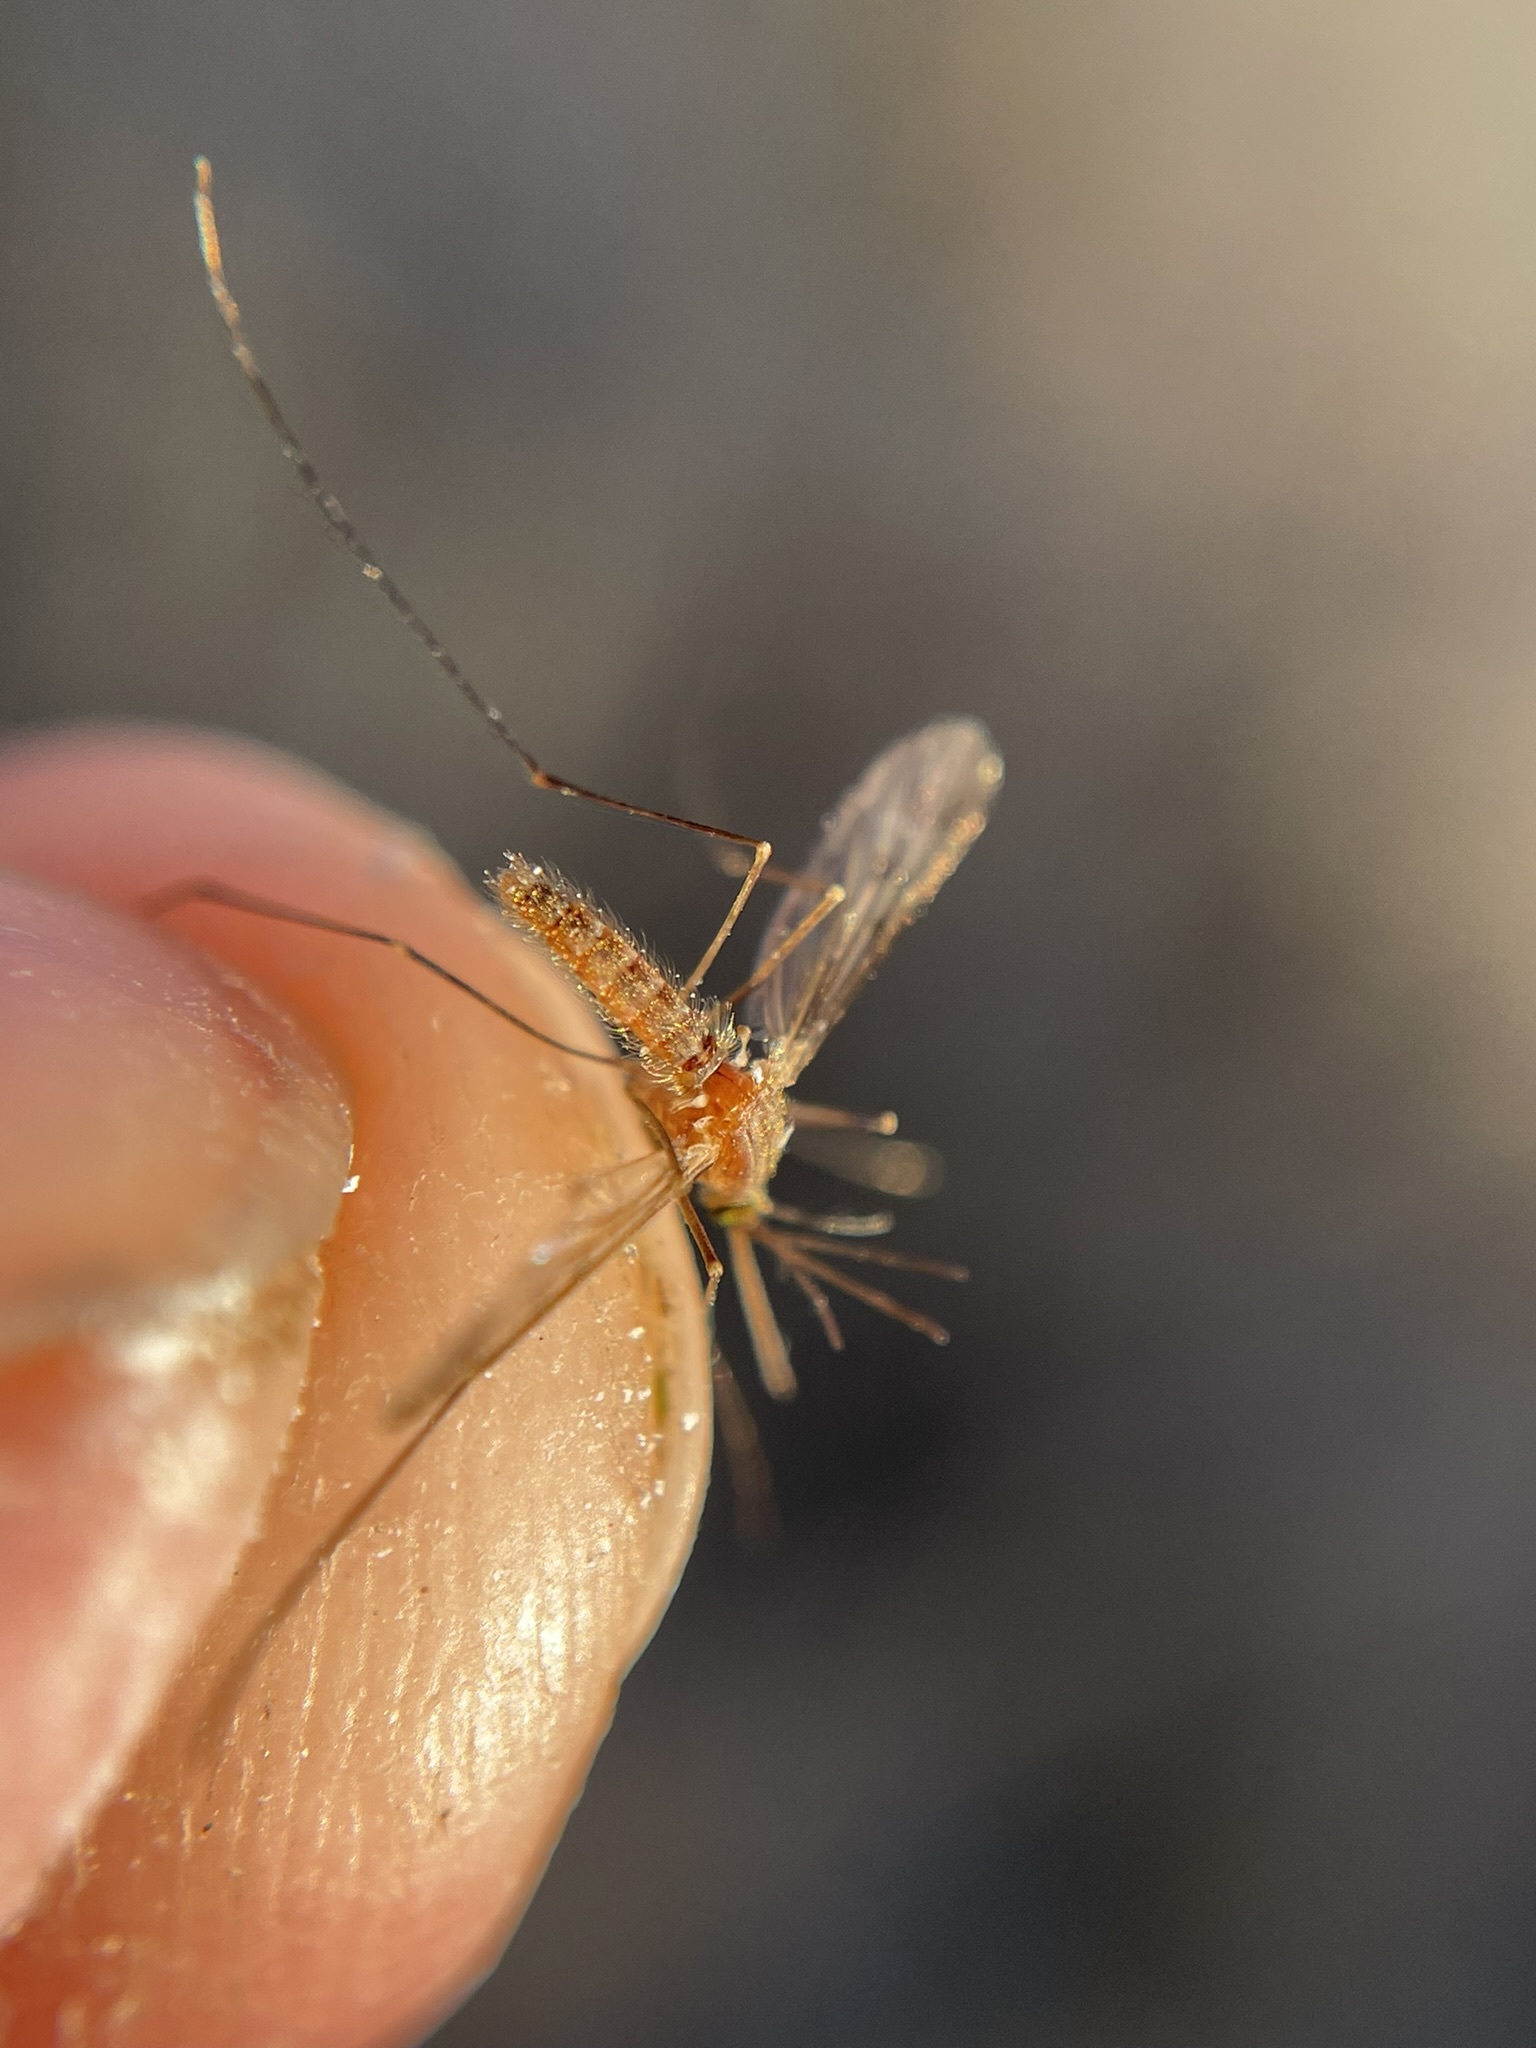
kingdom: Animalia
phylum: Arthropoda
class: Insecta
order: Diptera
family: Culicidae
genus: Anopheles
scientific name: Anopheles freeborni
